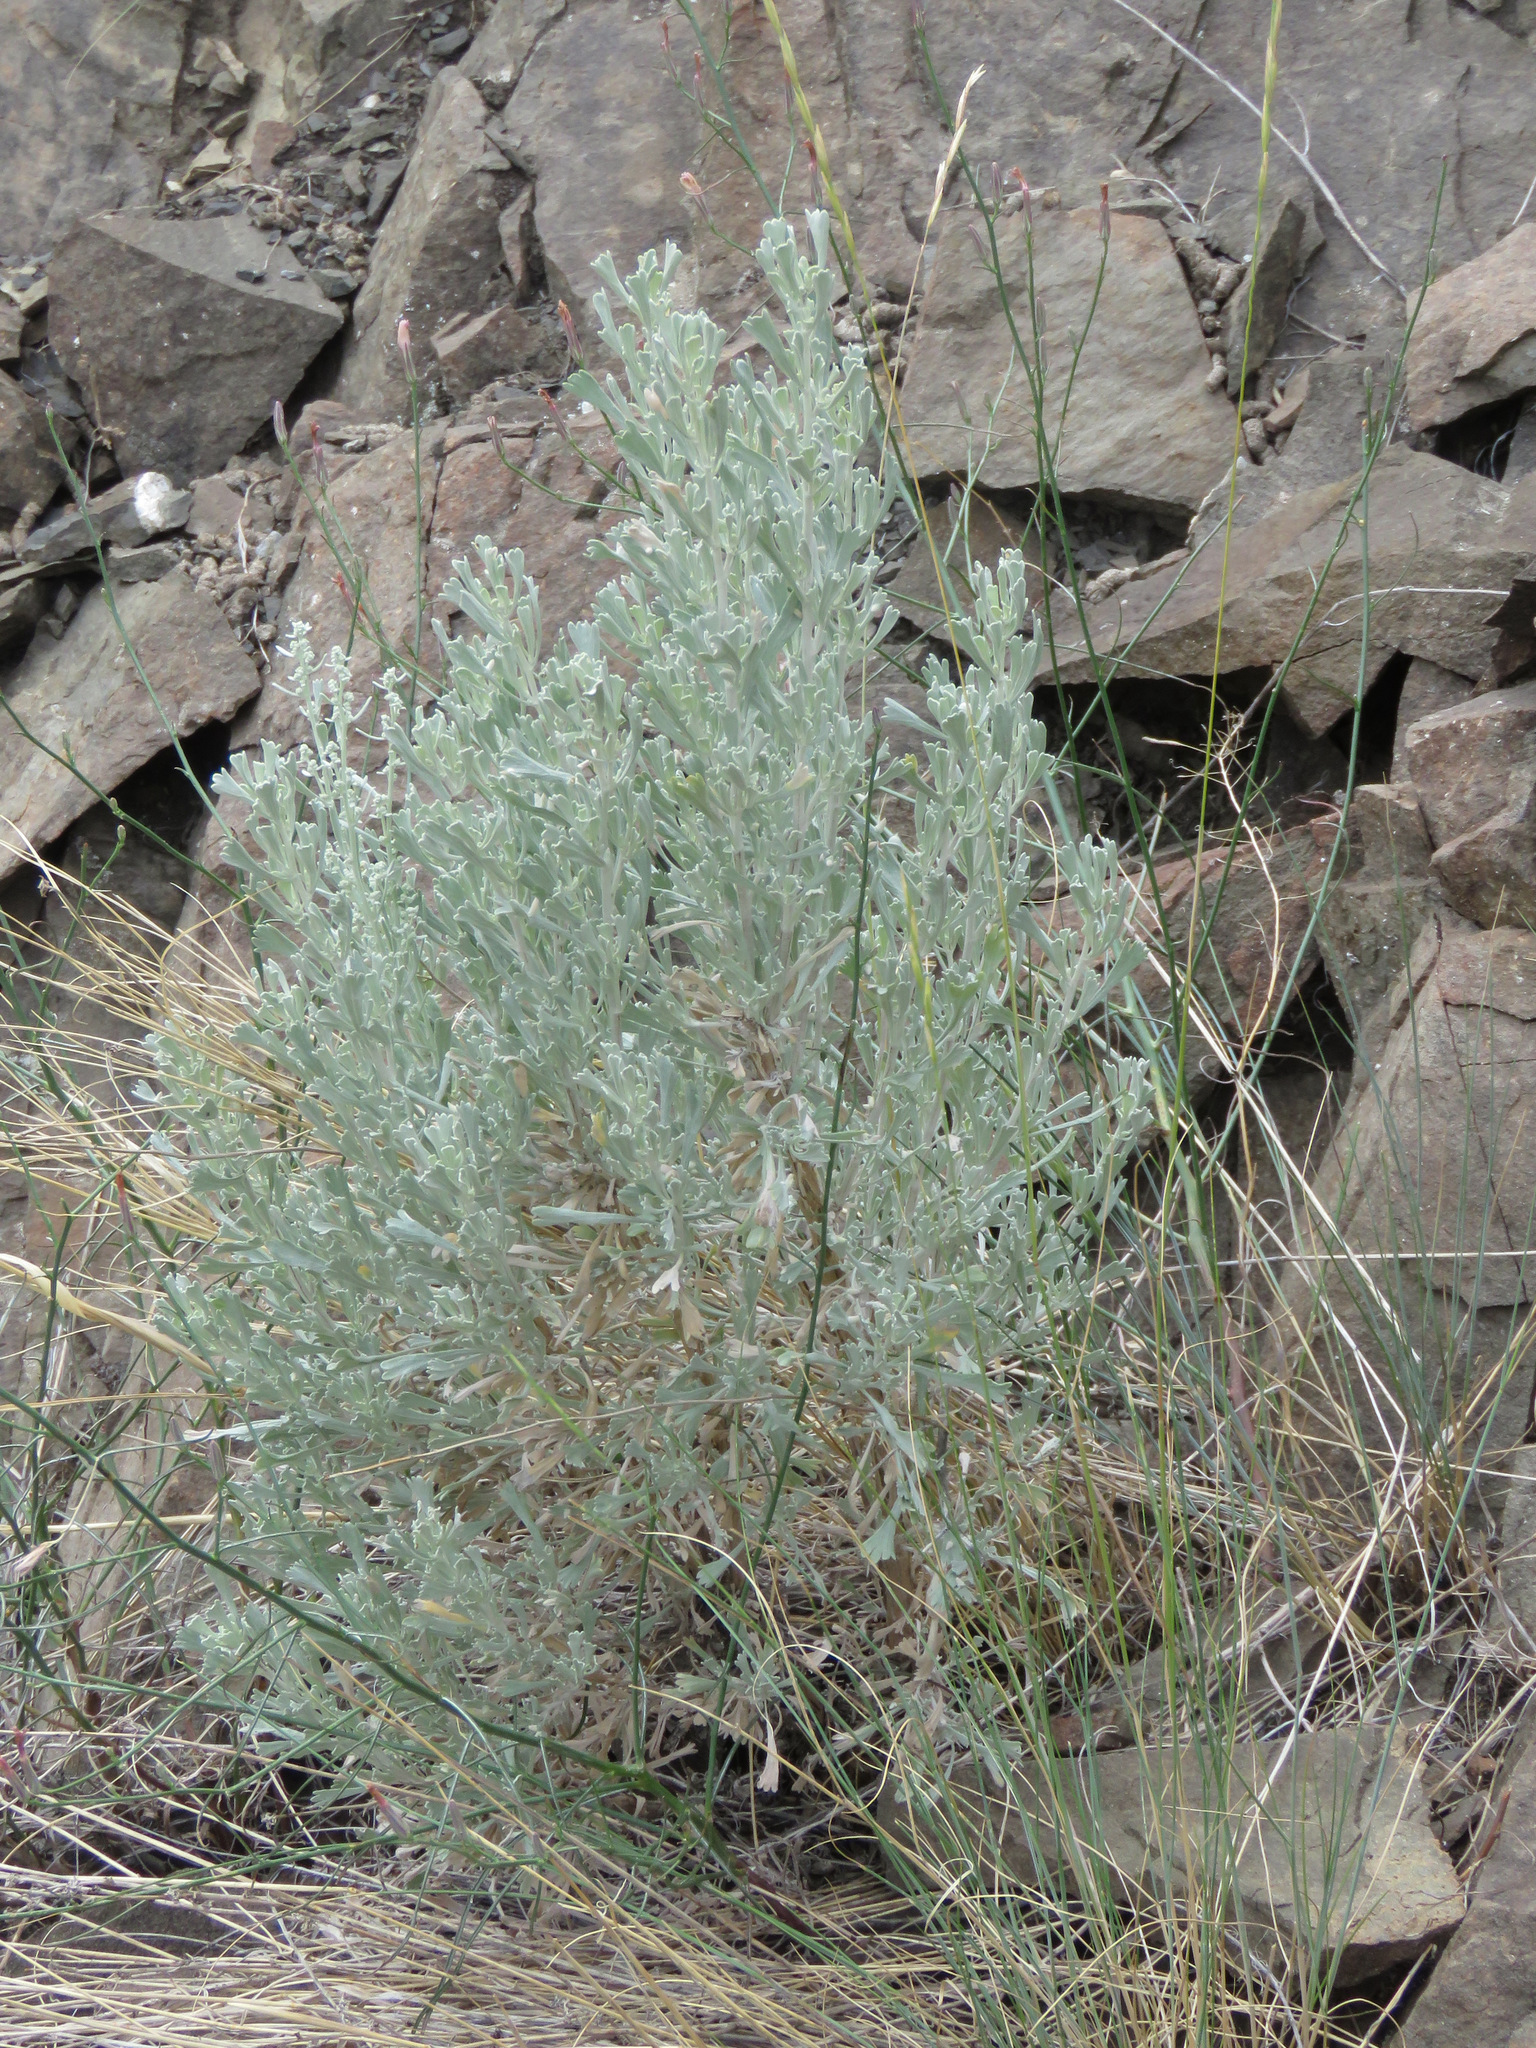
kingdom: Plantae
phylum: Tracheophyta
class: Magnoliopsida
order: Asterales
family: Asteraceae
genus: Artemisia
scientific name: Artemisia tridentata
